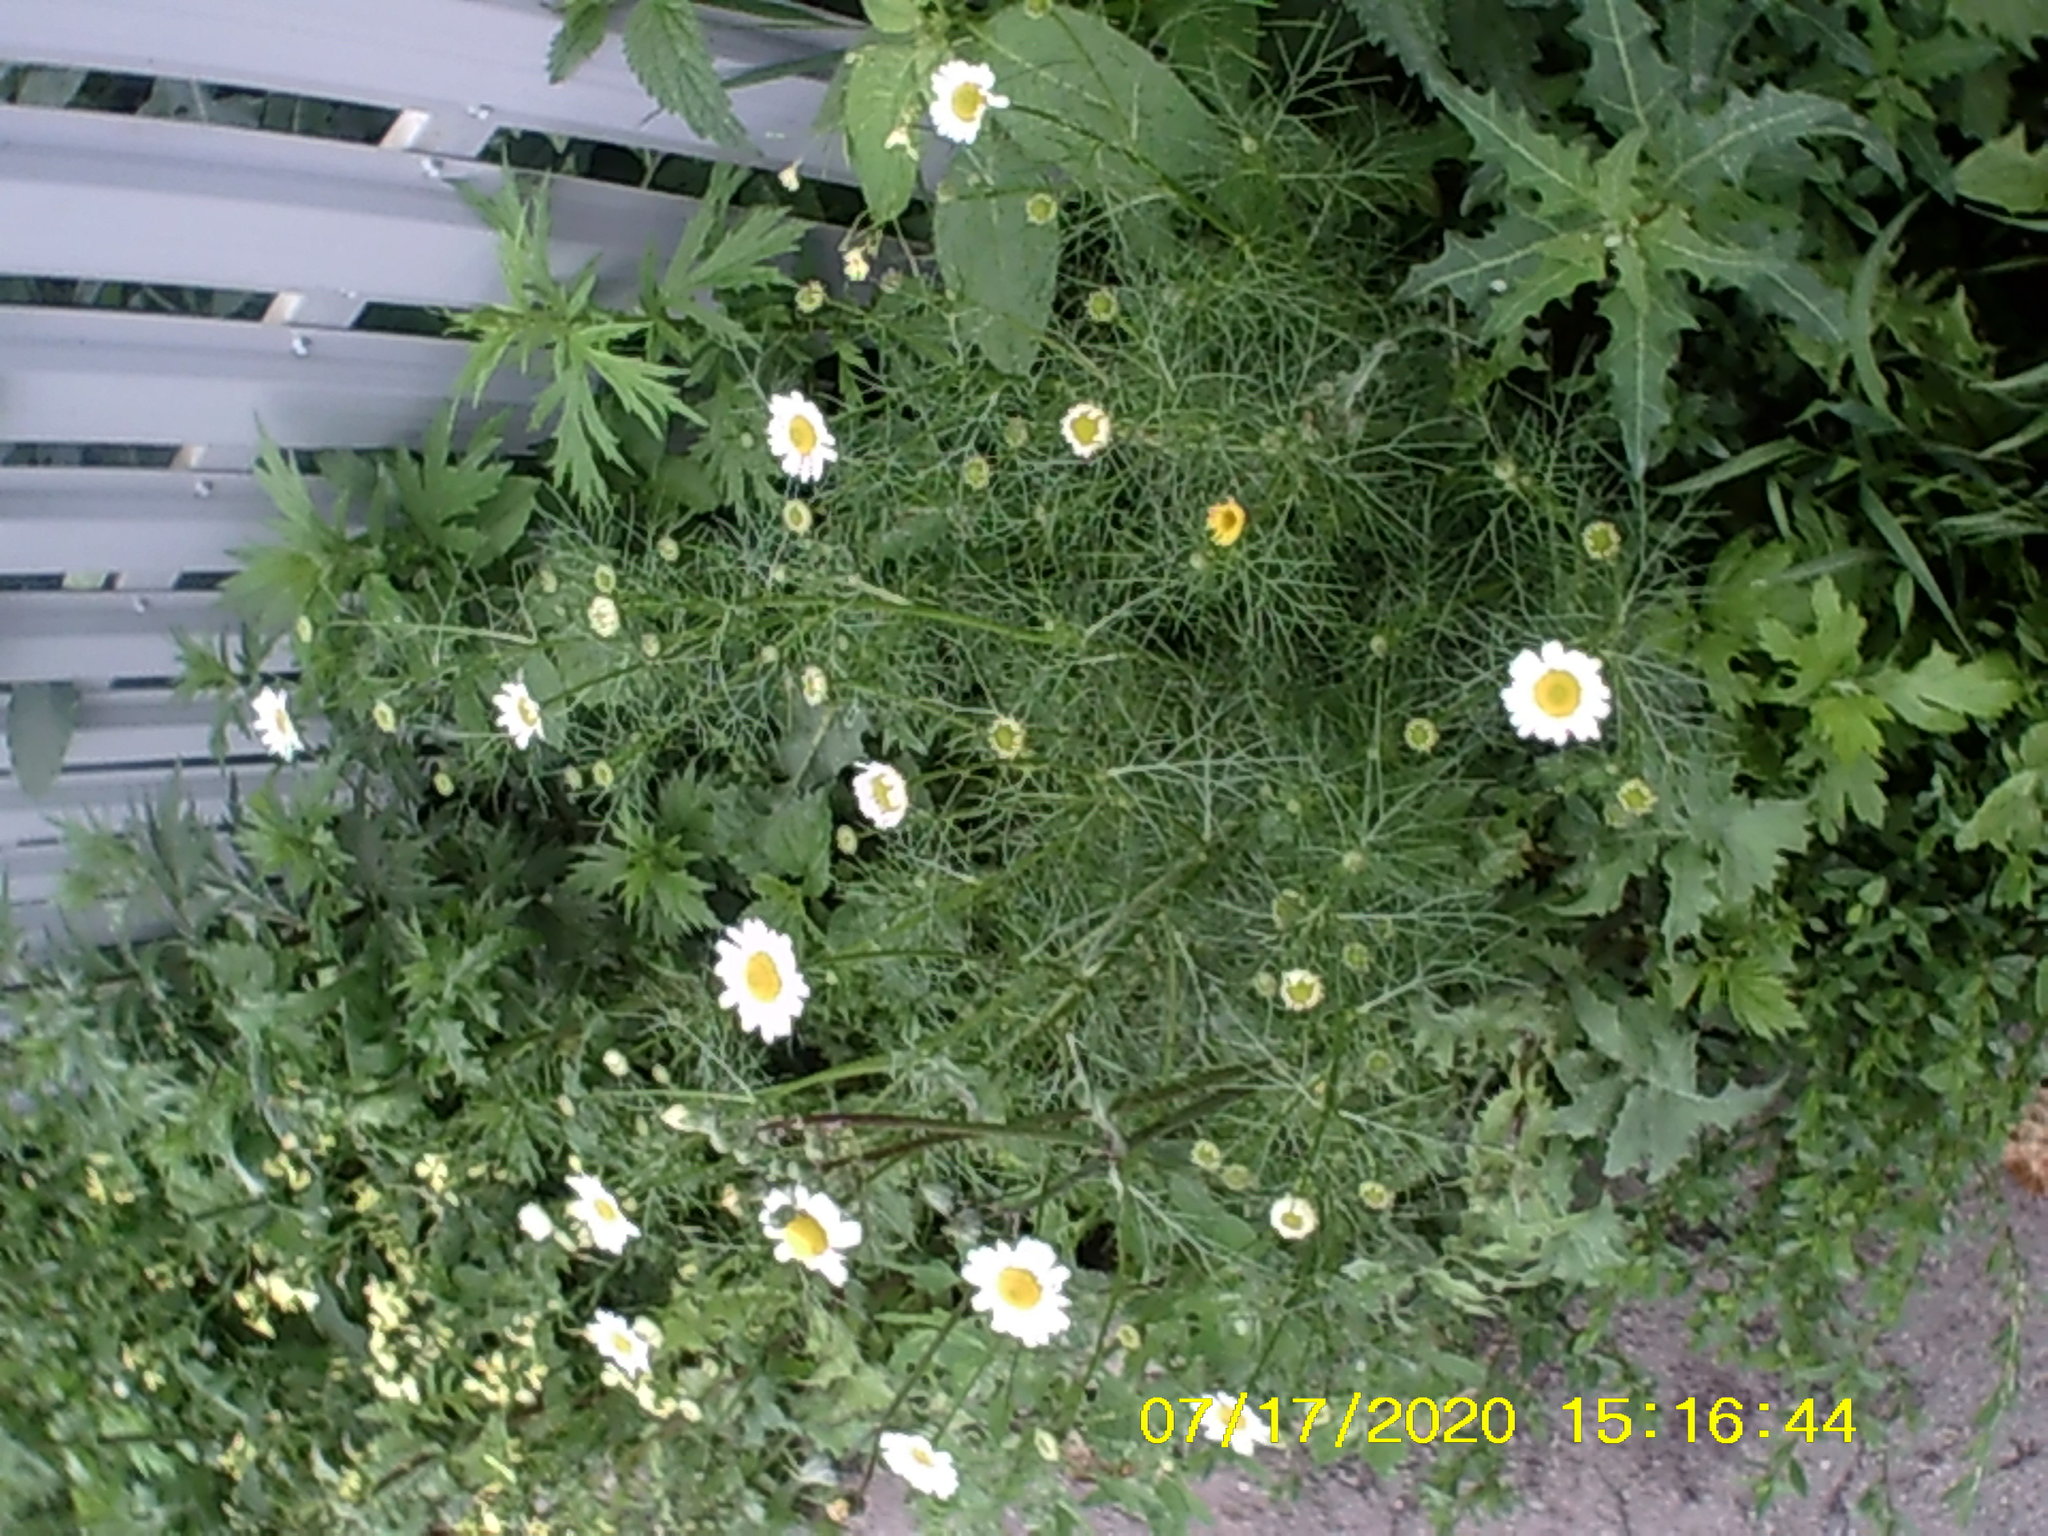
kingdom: Plantae
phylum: Tracheophyta
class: Magnoliopsida
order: Asterales
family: Asteraceae
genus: Tripleurospermum
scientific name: Tripleurospermum inodorum
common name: Scentless mayweed
